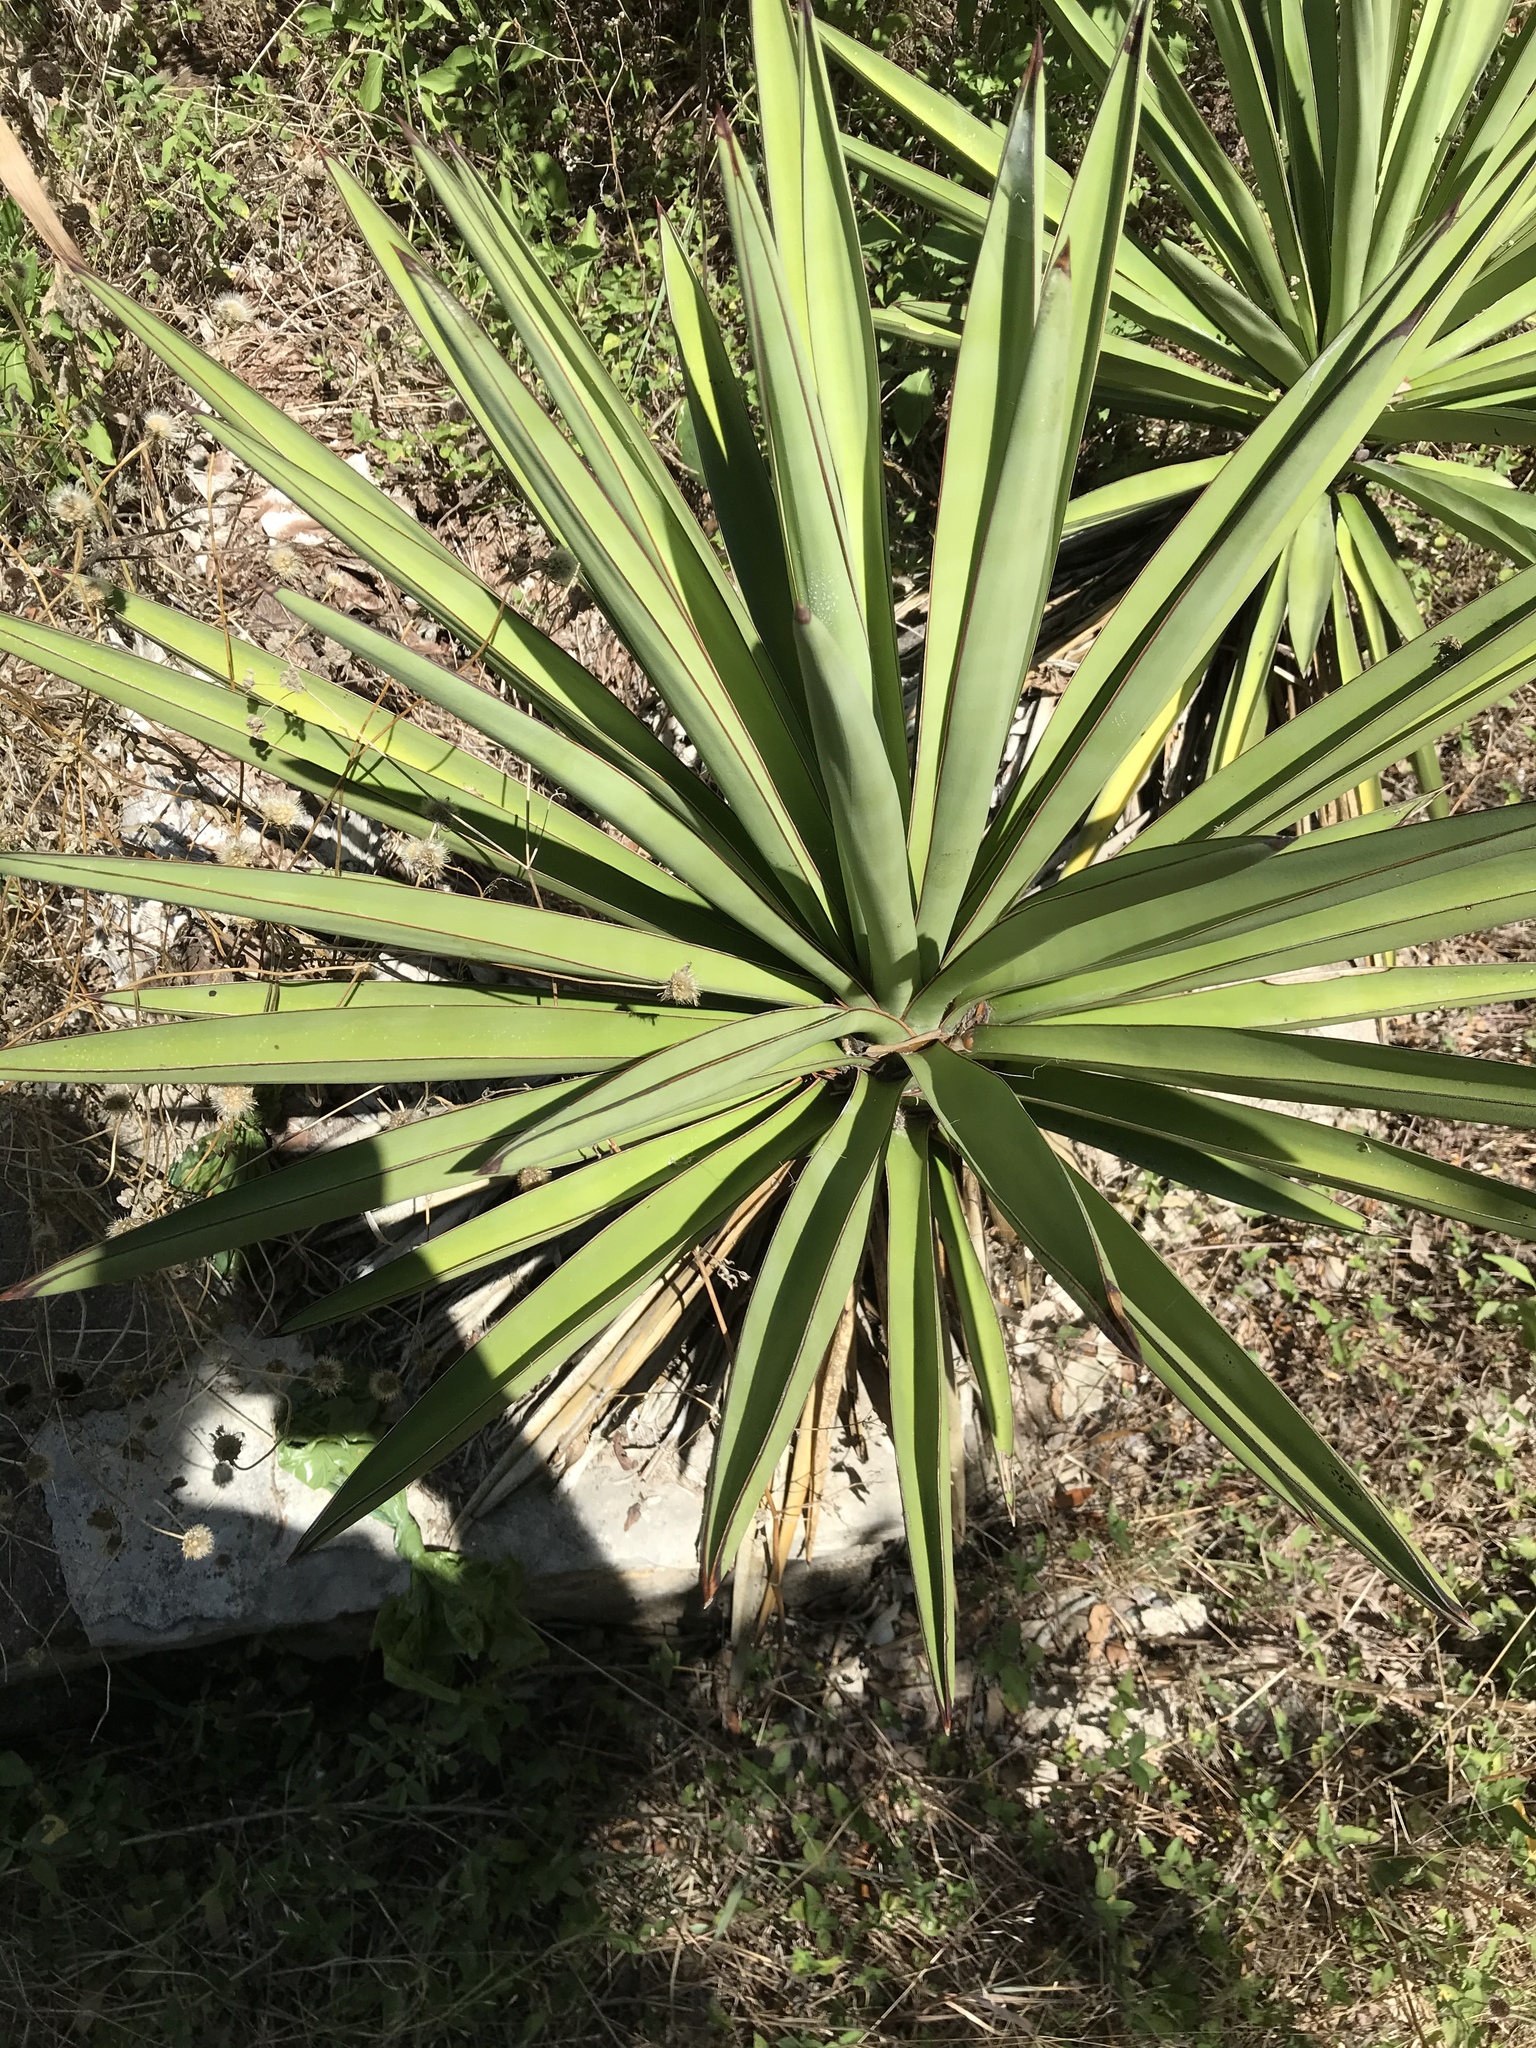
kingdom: Plantae
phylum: Tracheophyta
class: Liliopsida
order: Asparagales
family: Asparagaceae
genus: Yucca
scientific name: Yucca treculiana
